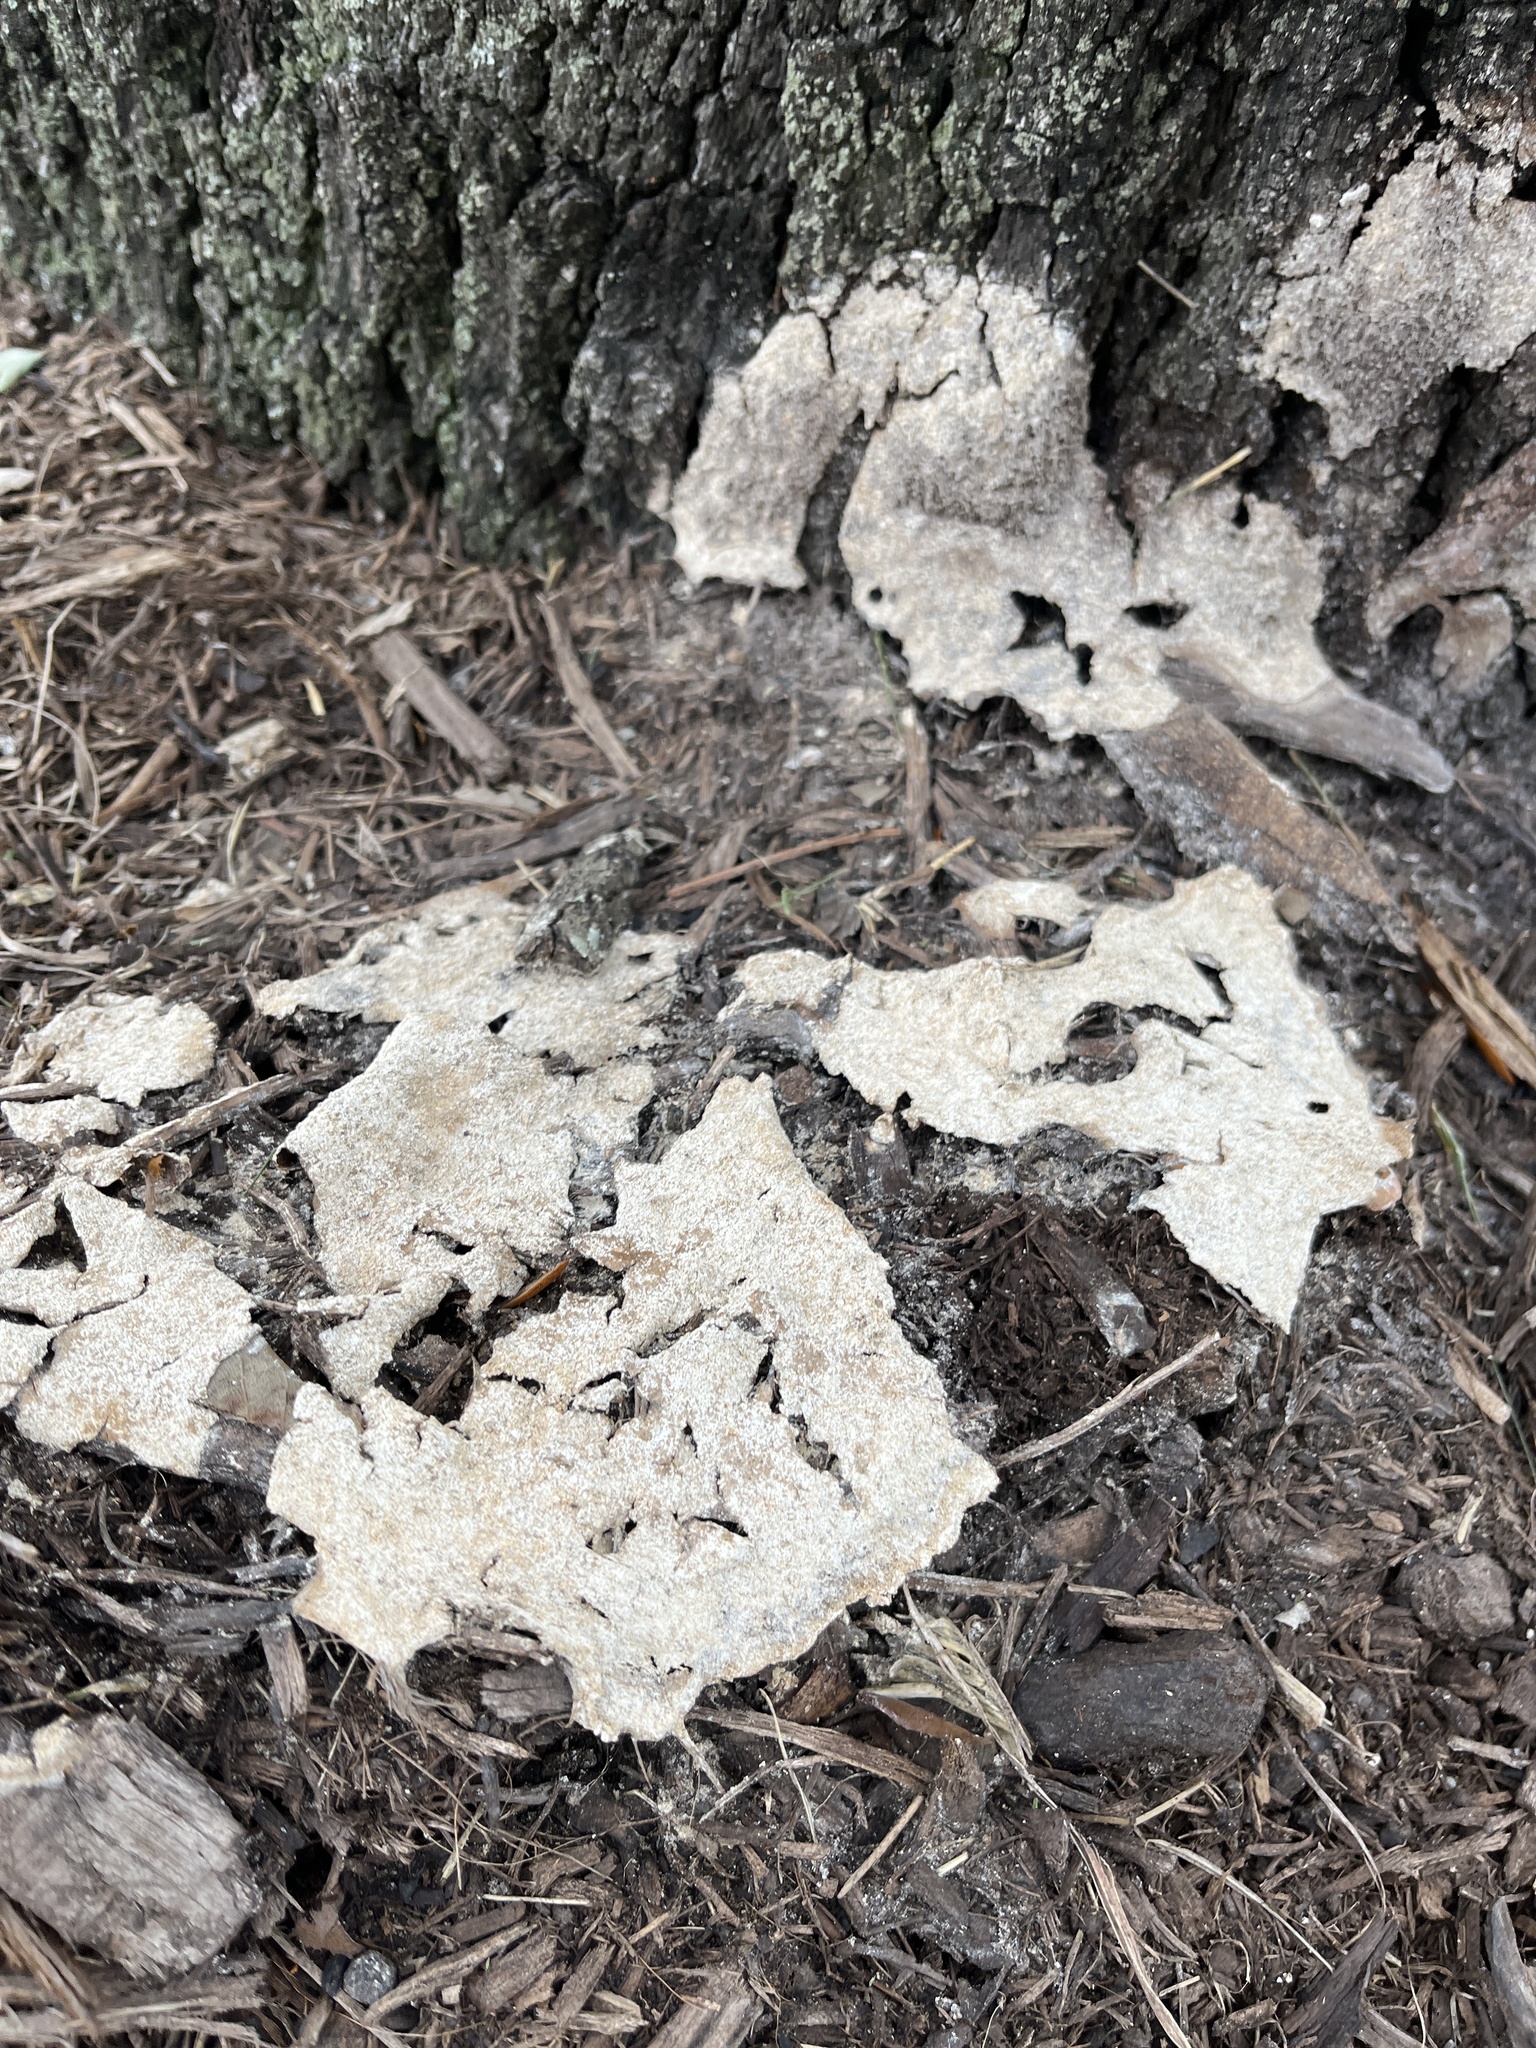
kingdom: Protozoa
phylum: Mycetozoa
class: Myxomycetes
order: Physarales
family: Physaraceae
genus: Fuligo
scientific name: Fuligo septica
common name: Dog vomit slime mold
